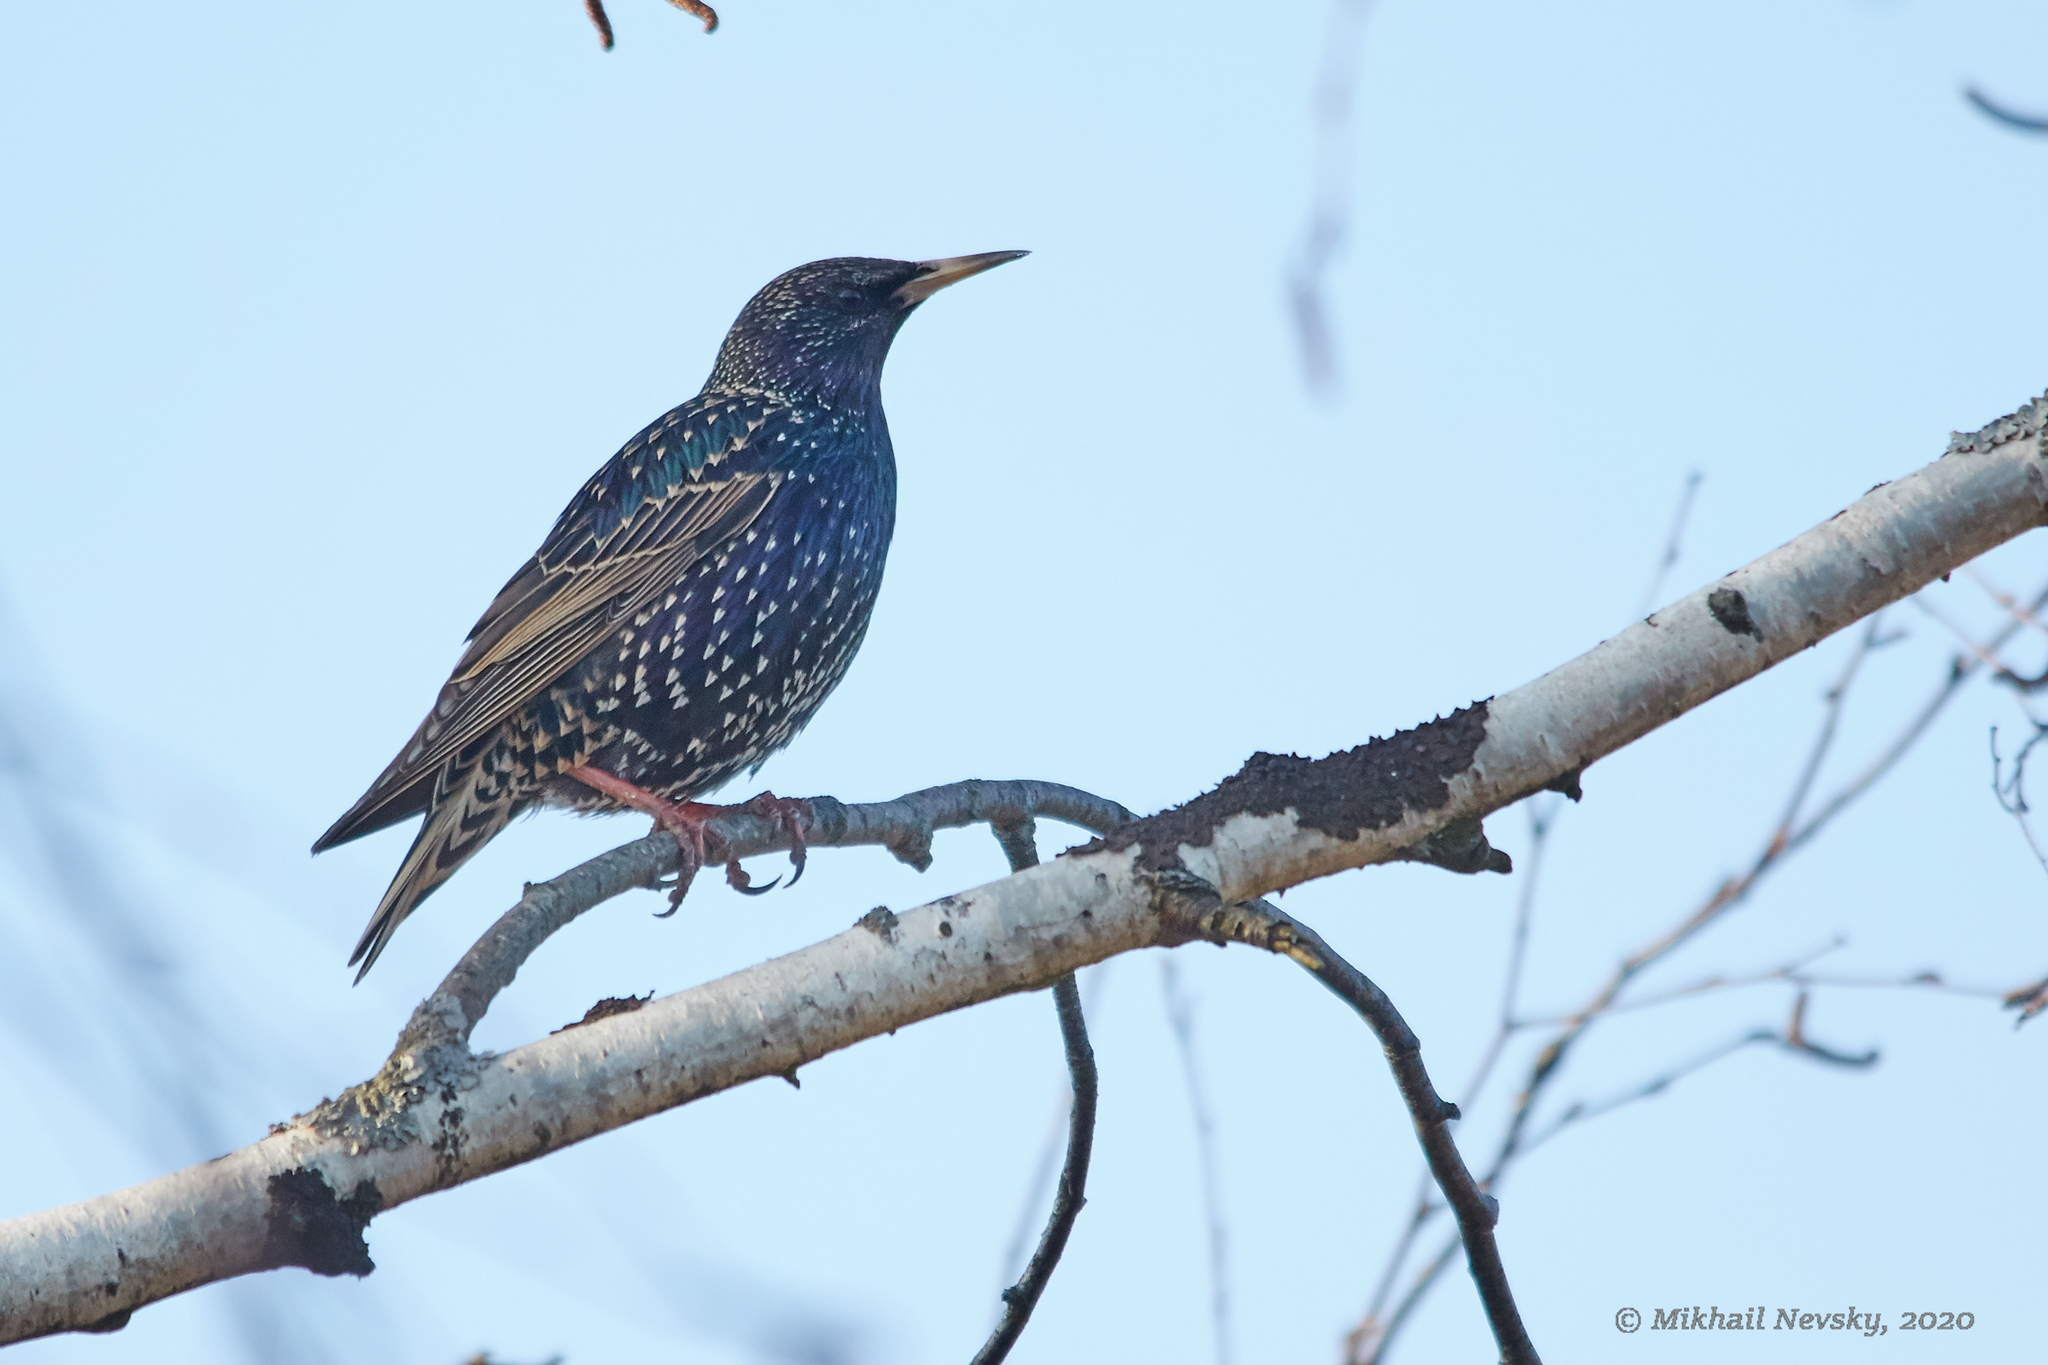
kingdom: Animalia
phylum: Chordata
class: Aves
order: Passeriformes
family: Sturnidae
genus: Sturnus
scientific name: Sturnus vulgaris
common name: Common starling
